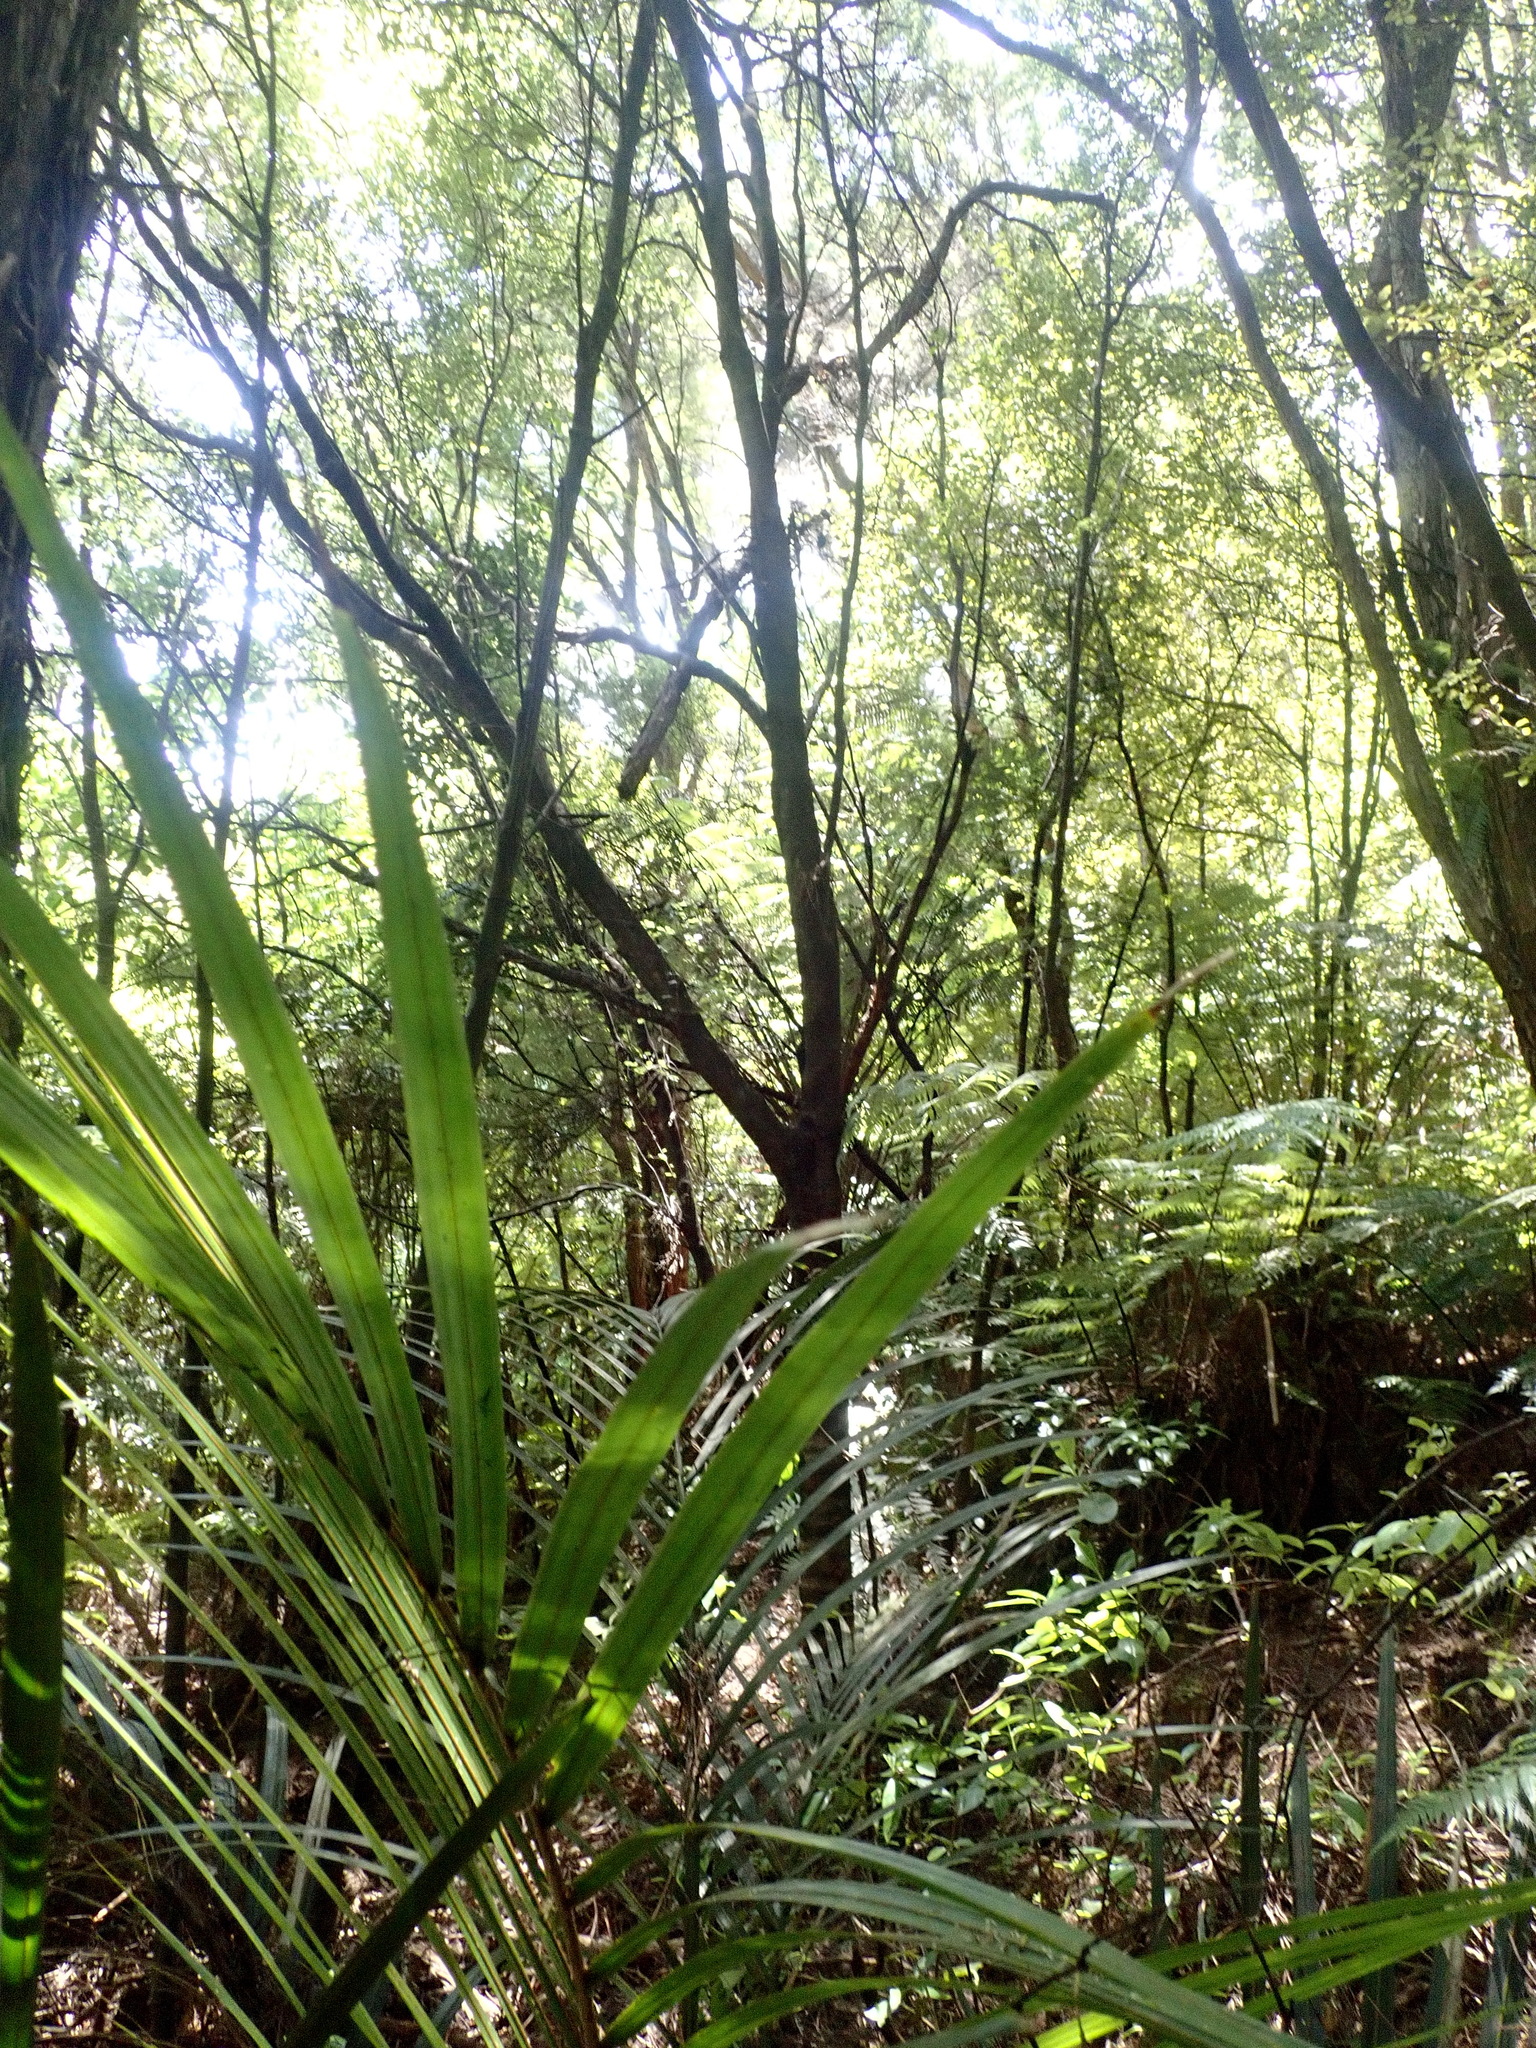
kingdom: Plantae
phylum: Tracheophyta
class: Magnoliopsida
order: Apiales
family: Pittosporaceae
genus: Pittosporum
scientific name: Pittosporum tenuifolium
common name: Kohuhu
